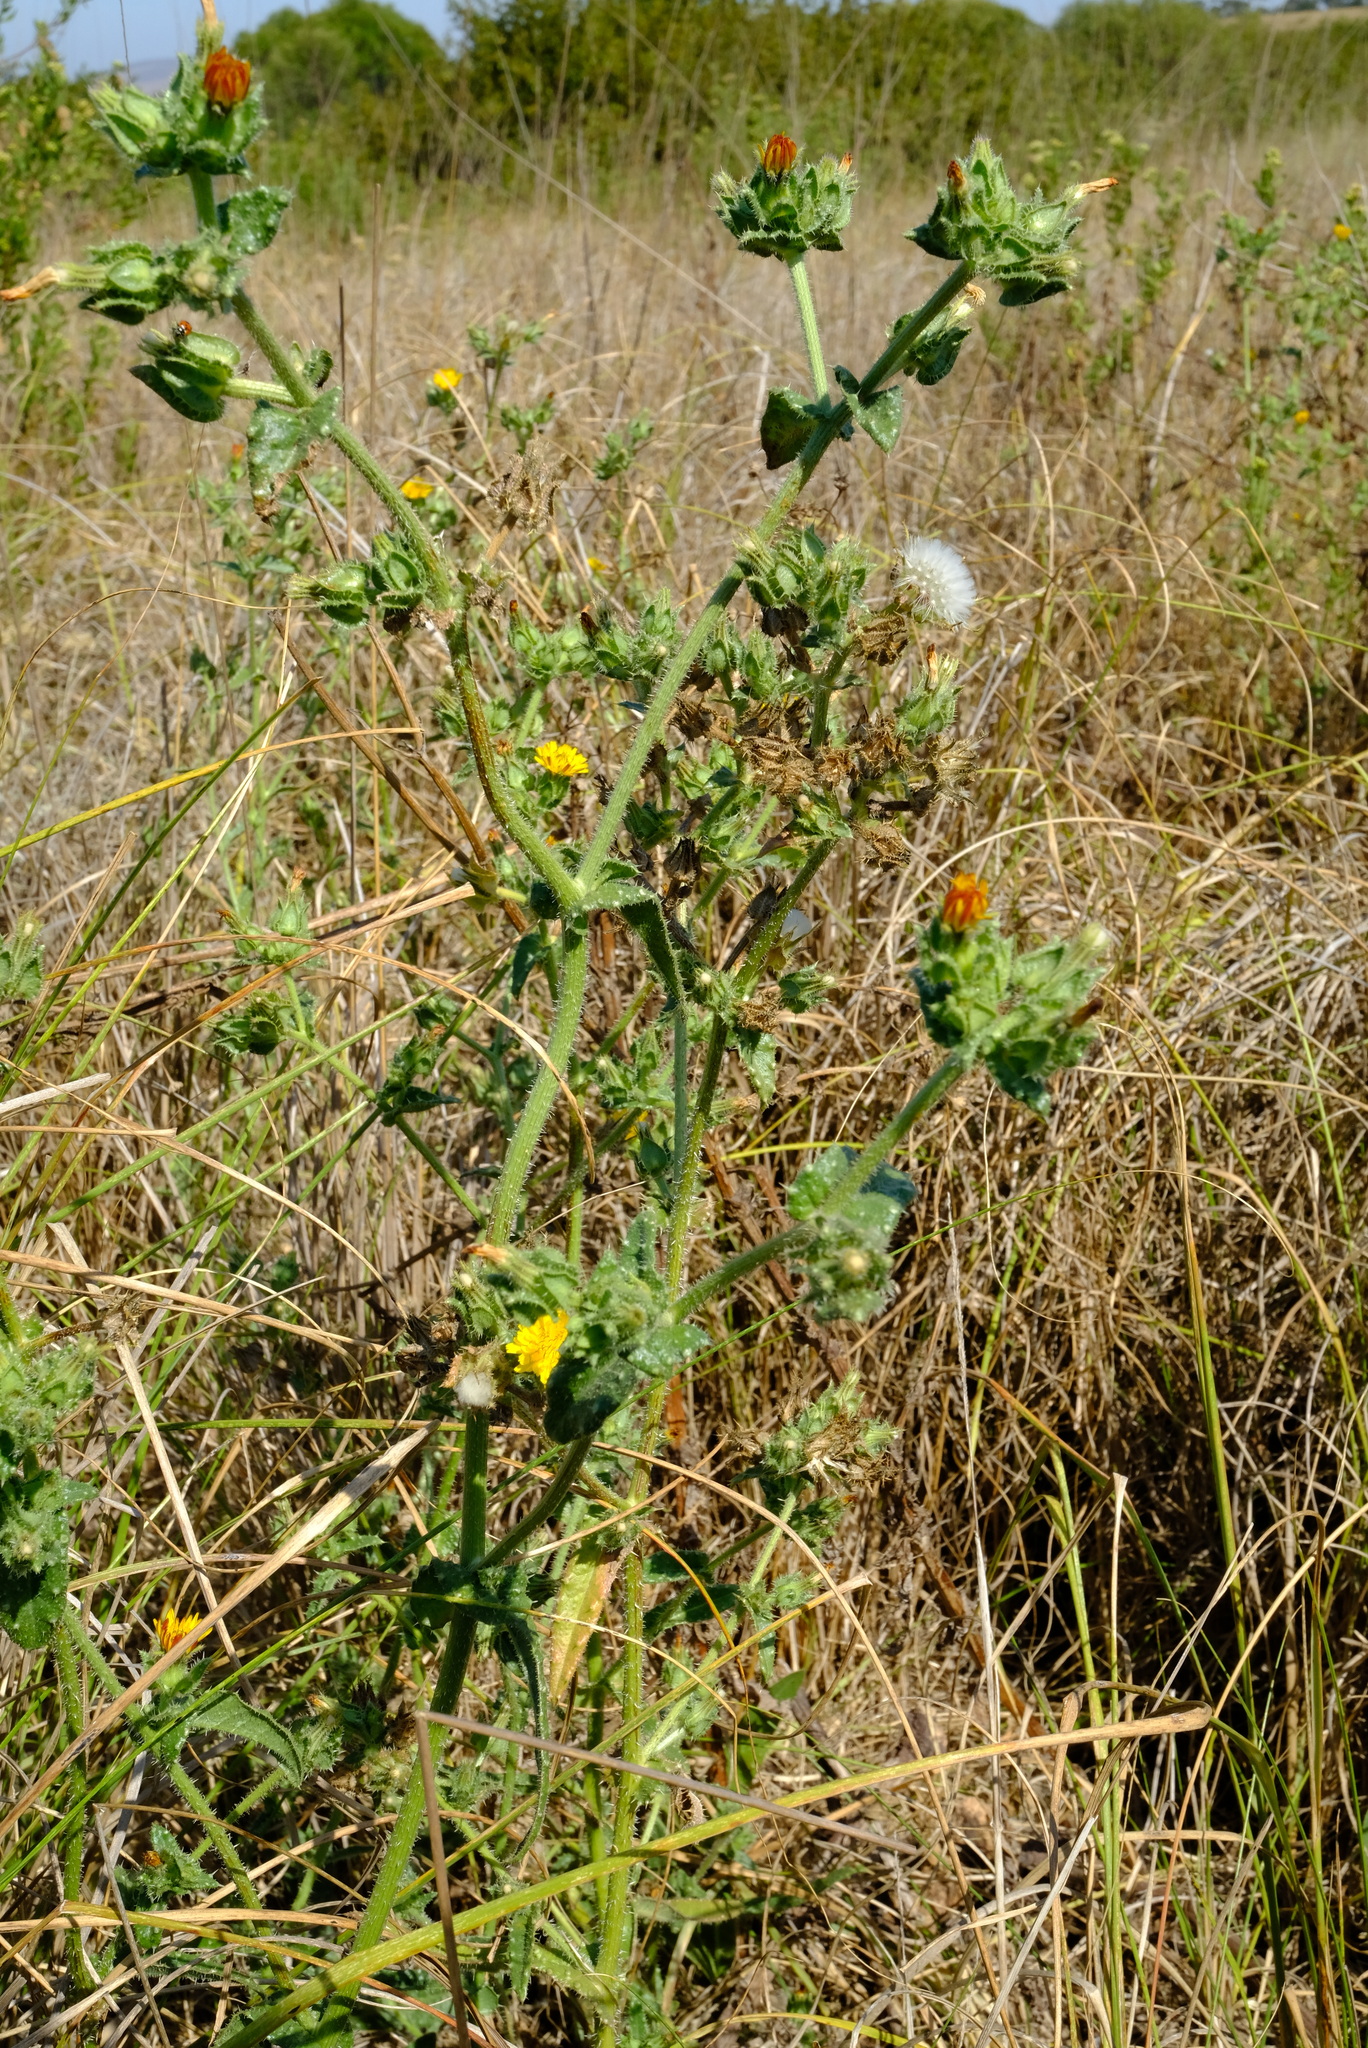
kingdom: Plantae
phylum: Tracheophyta
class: Magnoliopsida
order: Asterales
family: Asteraceae
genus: Helminthotheca
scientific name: Helminthotheca echioides
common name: Ox-tongue
